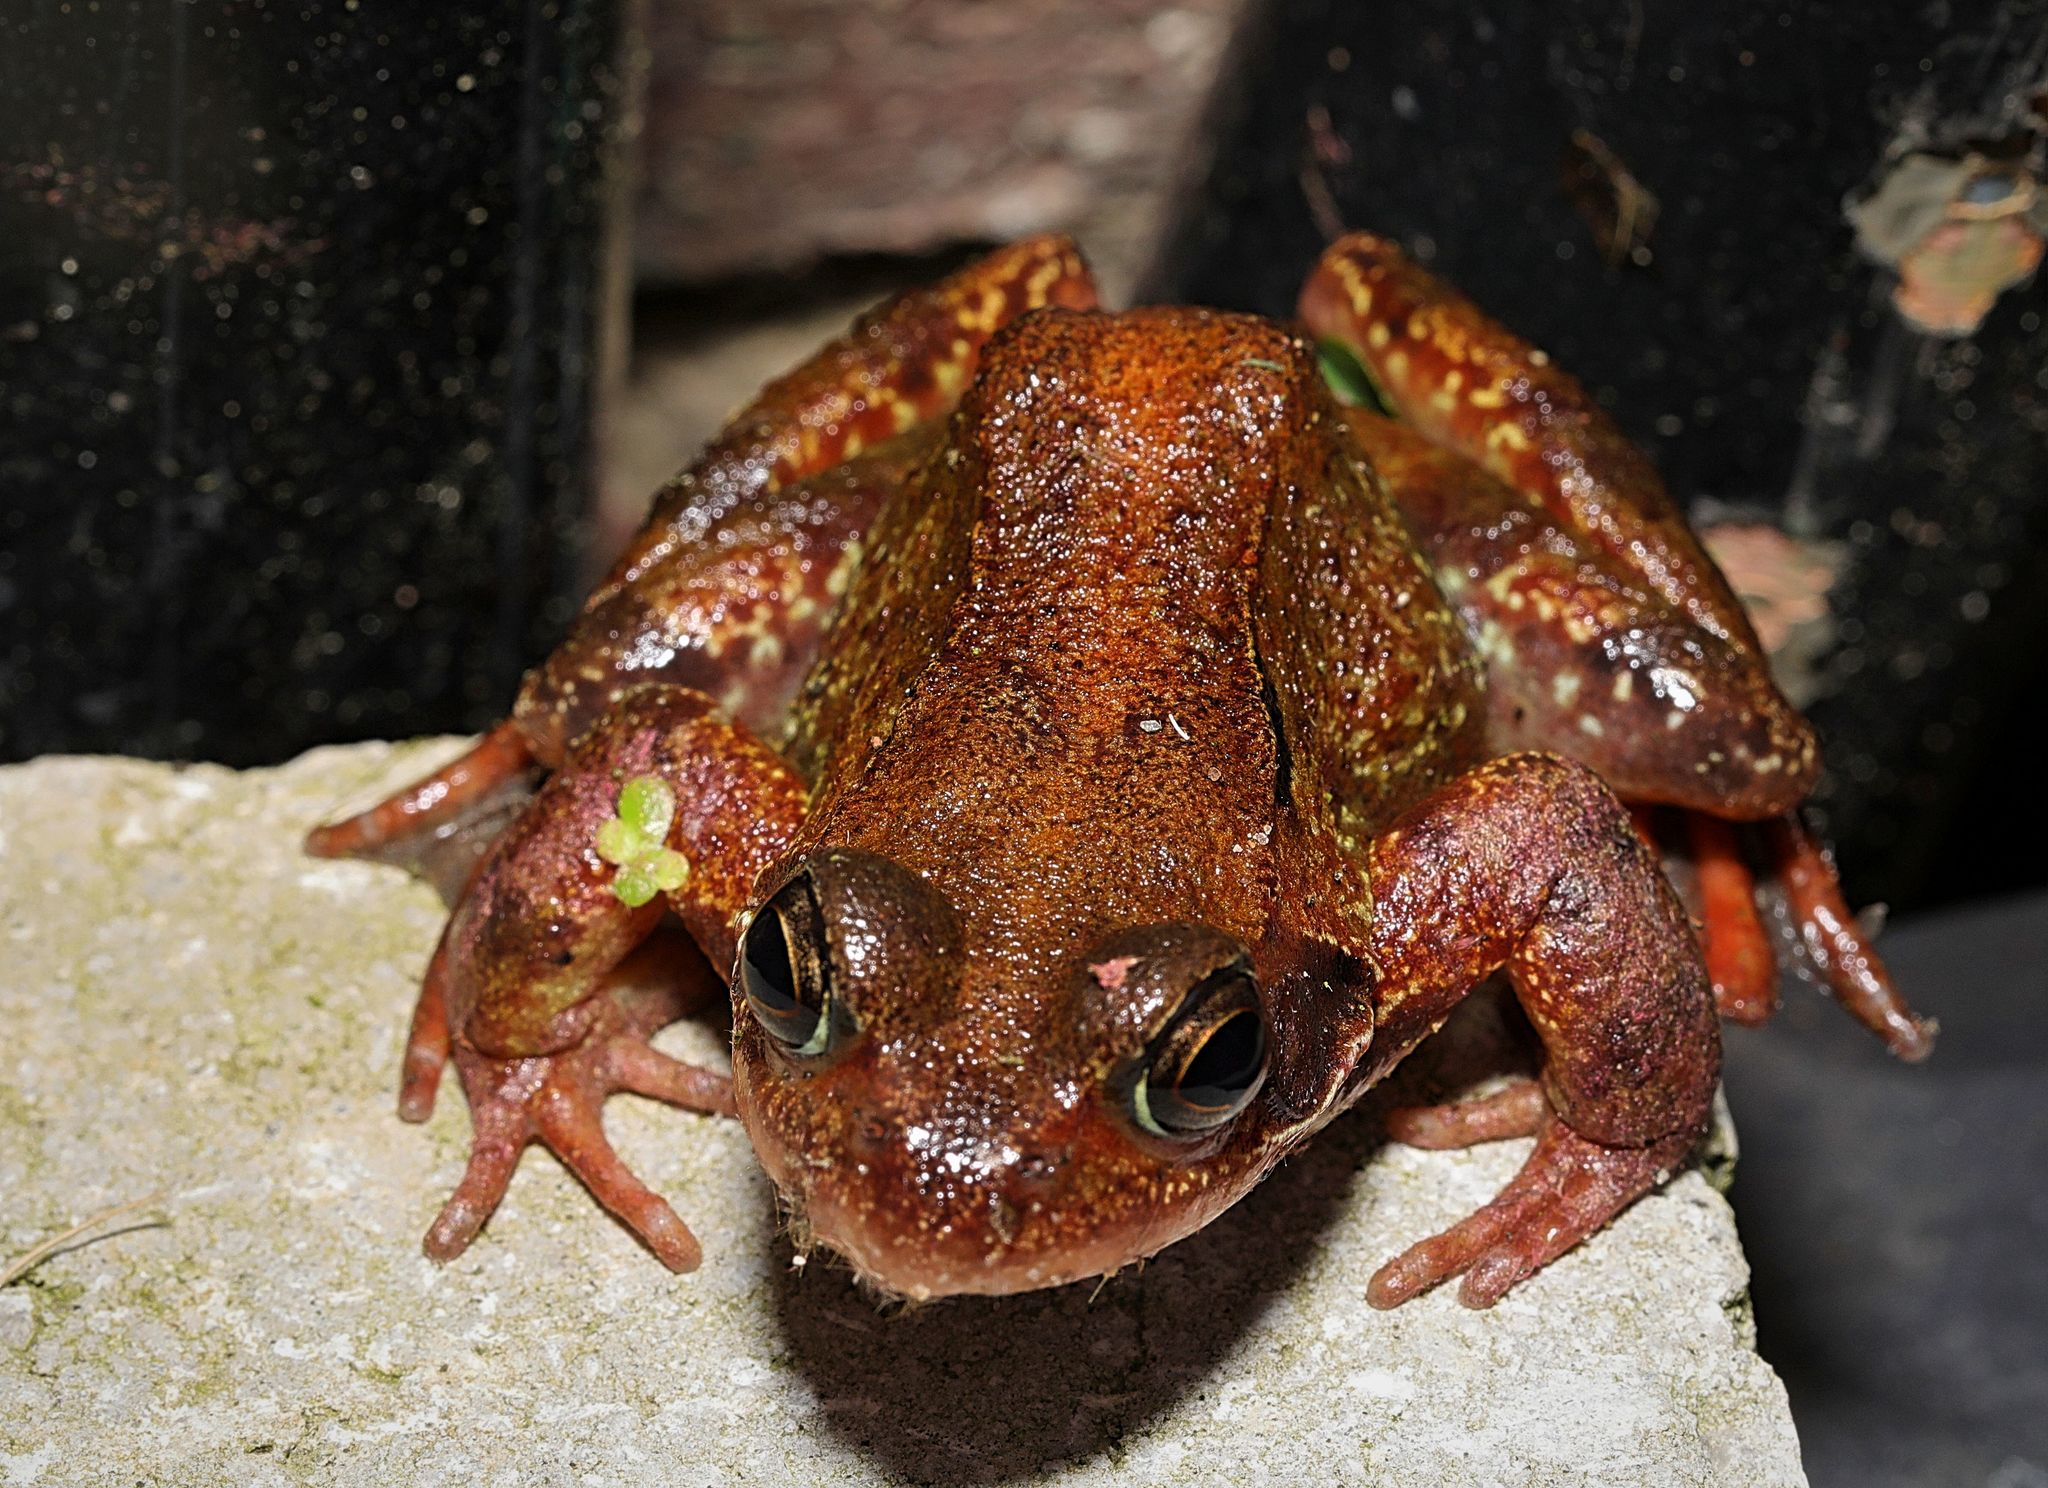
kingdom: Animalia
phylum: Chordata
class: Amphibia
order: Anura
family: Ranidae
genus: Rana
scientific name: Rana temporaria
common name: Common frog
